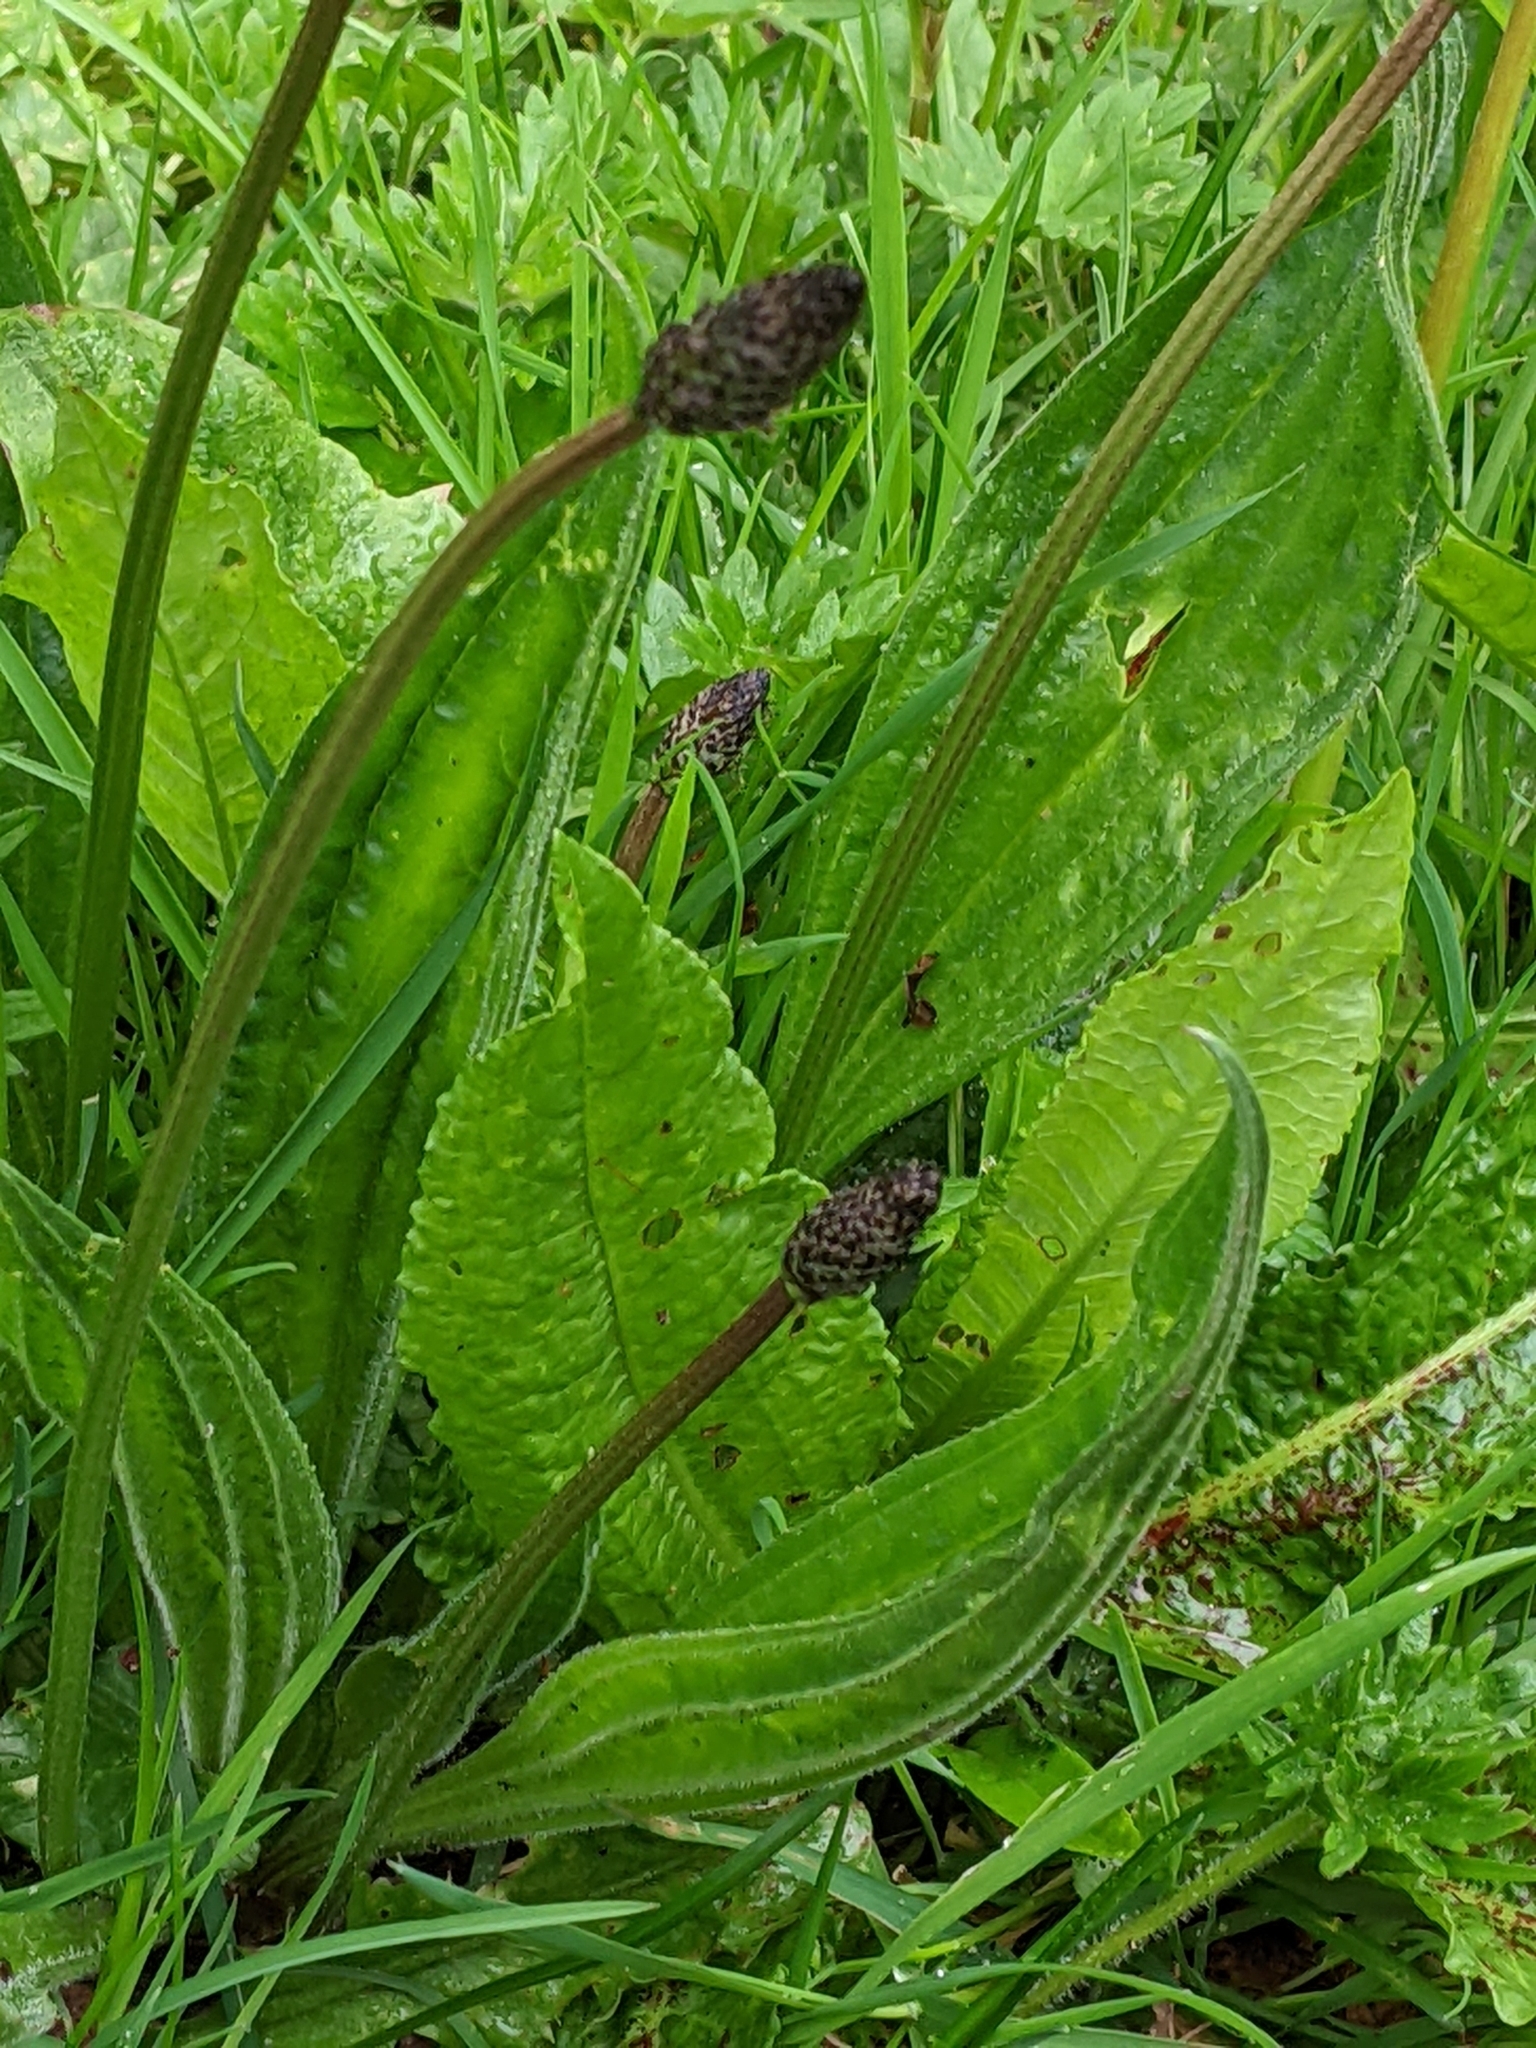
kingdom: Plantae
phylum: Tracheophyta
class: Magnoliopsida
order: Lamiales
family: Plantaginaceae
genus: Plantago
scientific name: Plantago lanceolata
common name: Ribwort plantain
